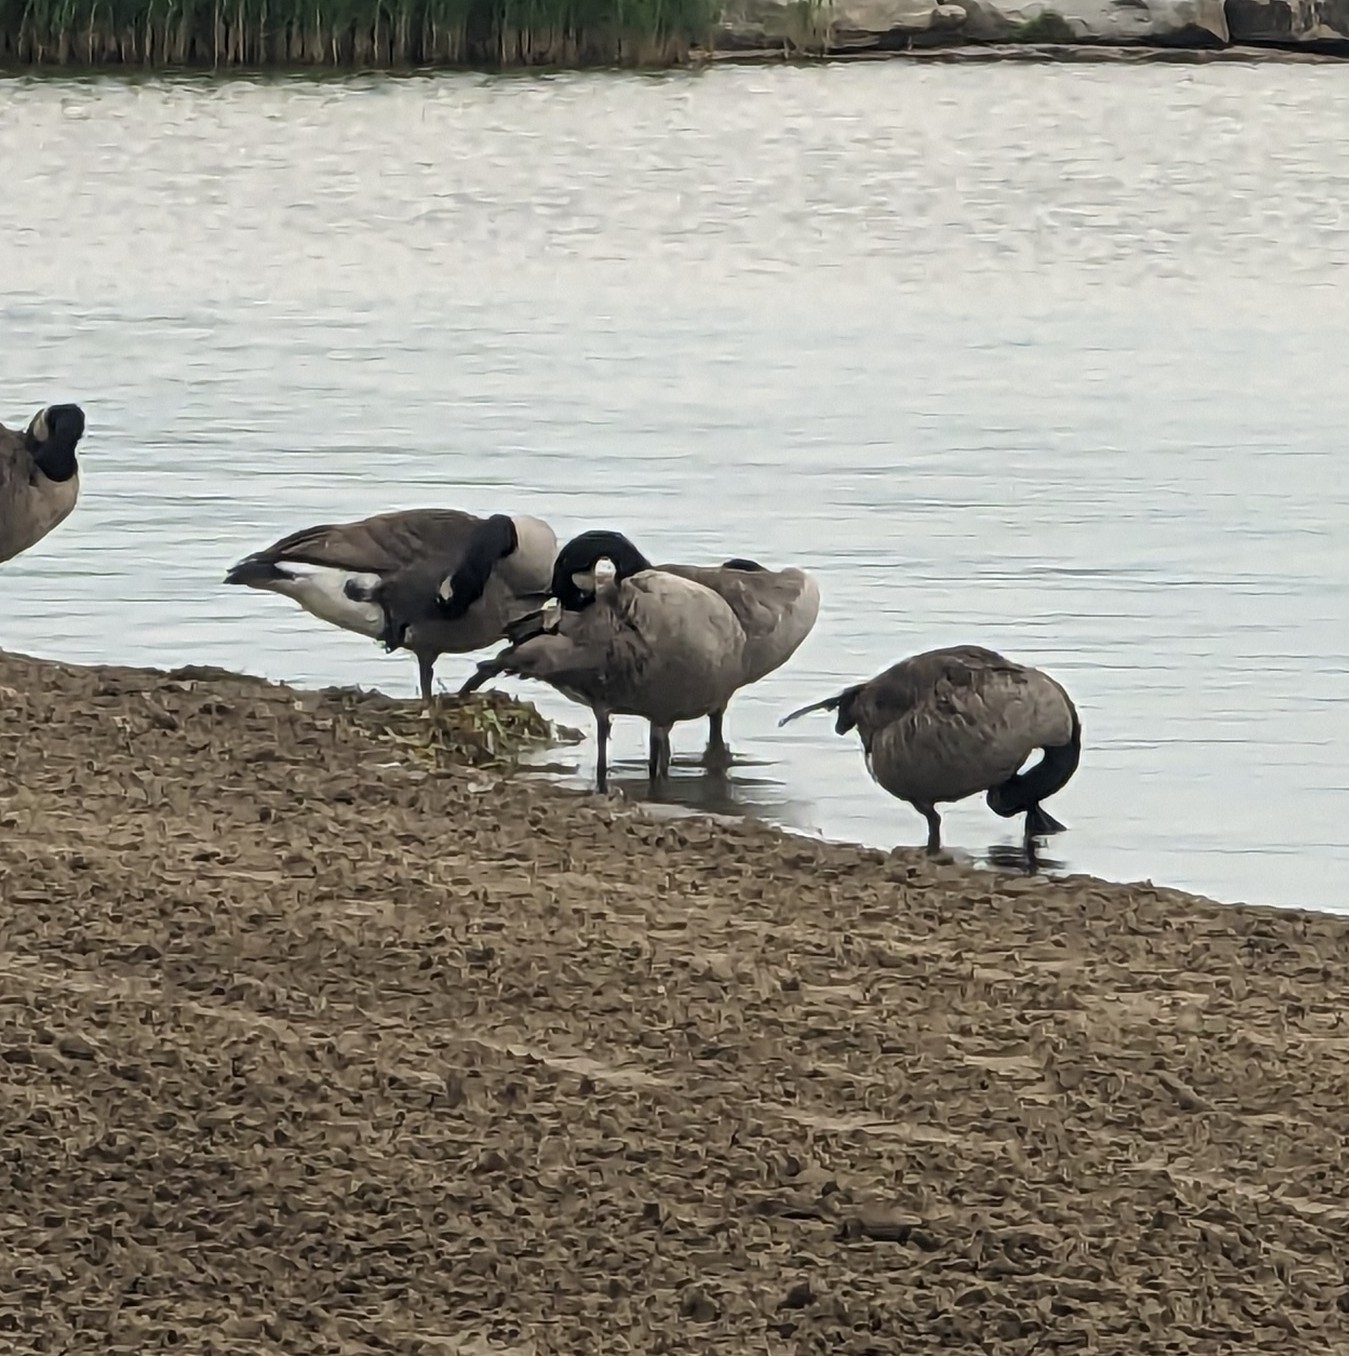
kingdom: Animalia
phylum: Chordata
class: Aves
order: Anseriformes
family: Anatidae
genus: Branta
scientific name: Branta canadensis
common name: Canada goose
